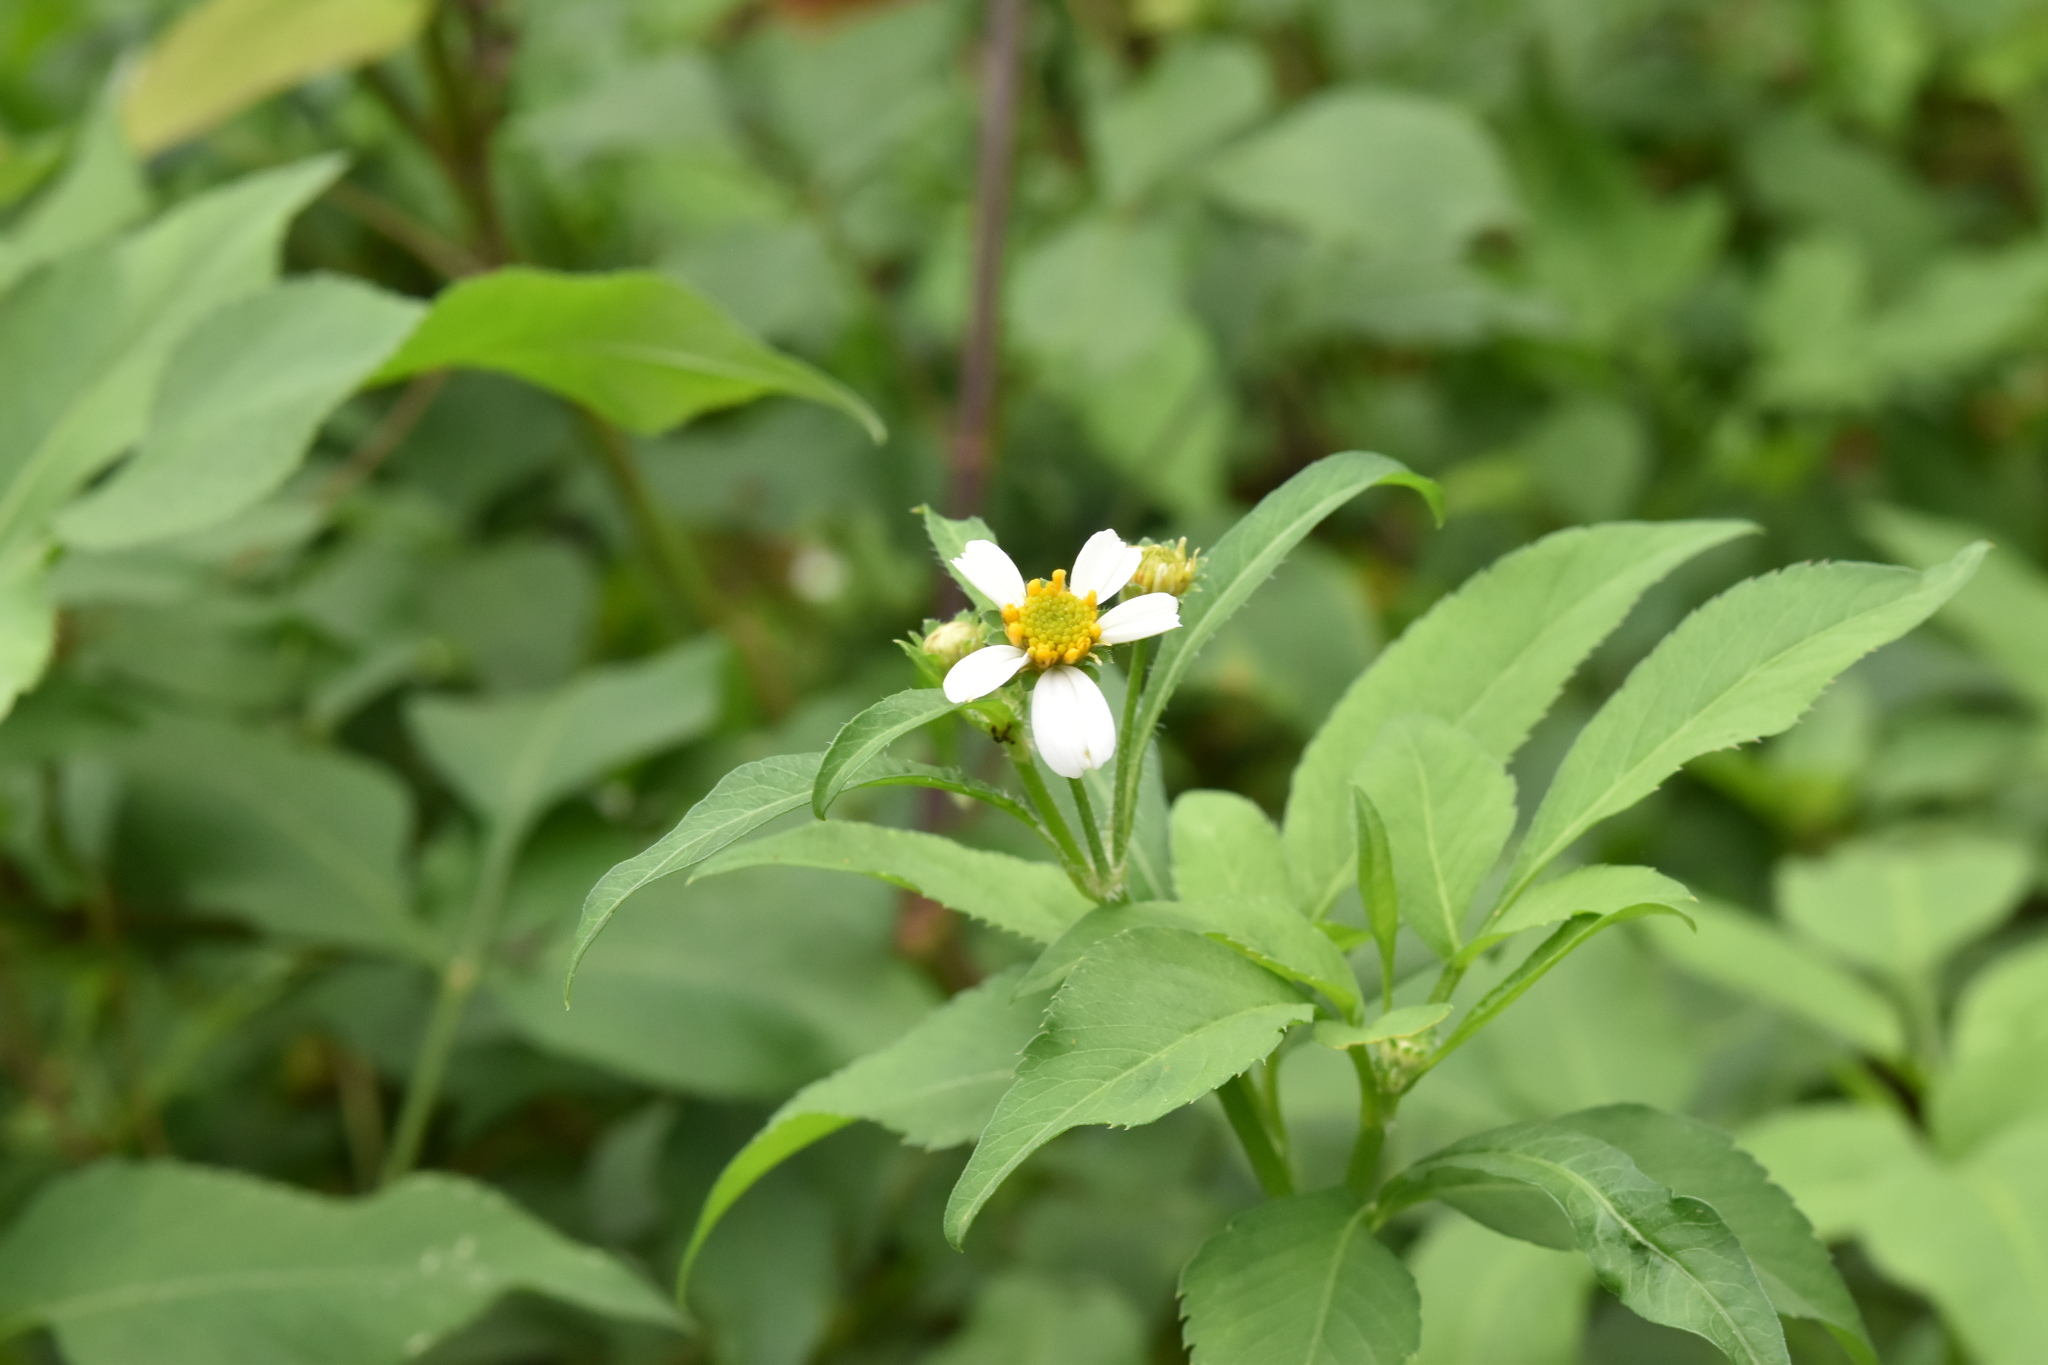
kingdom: Plantae
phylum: Tracheophyta
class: Magnoliopsida
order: Asterales
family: Asteraceae
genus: Bidens
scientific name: Bidens alba
